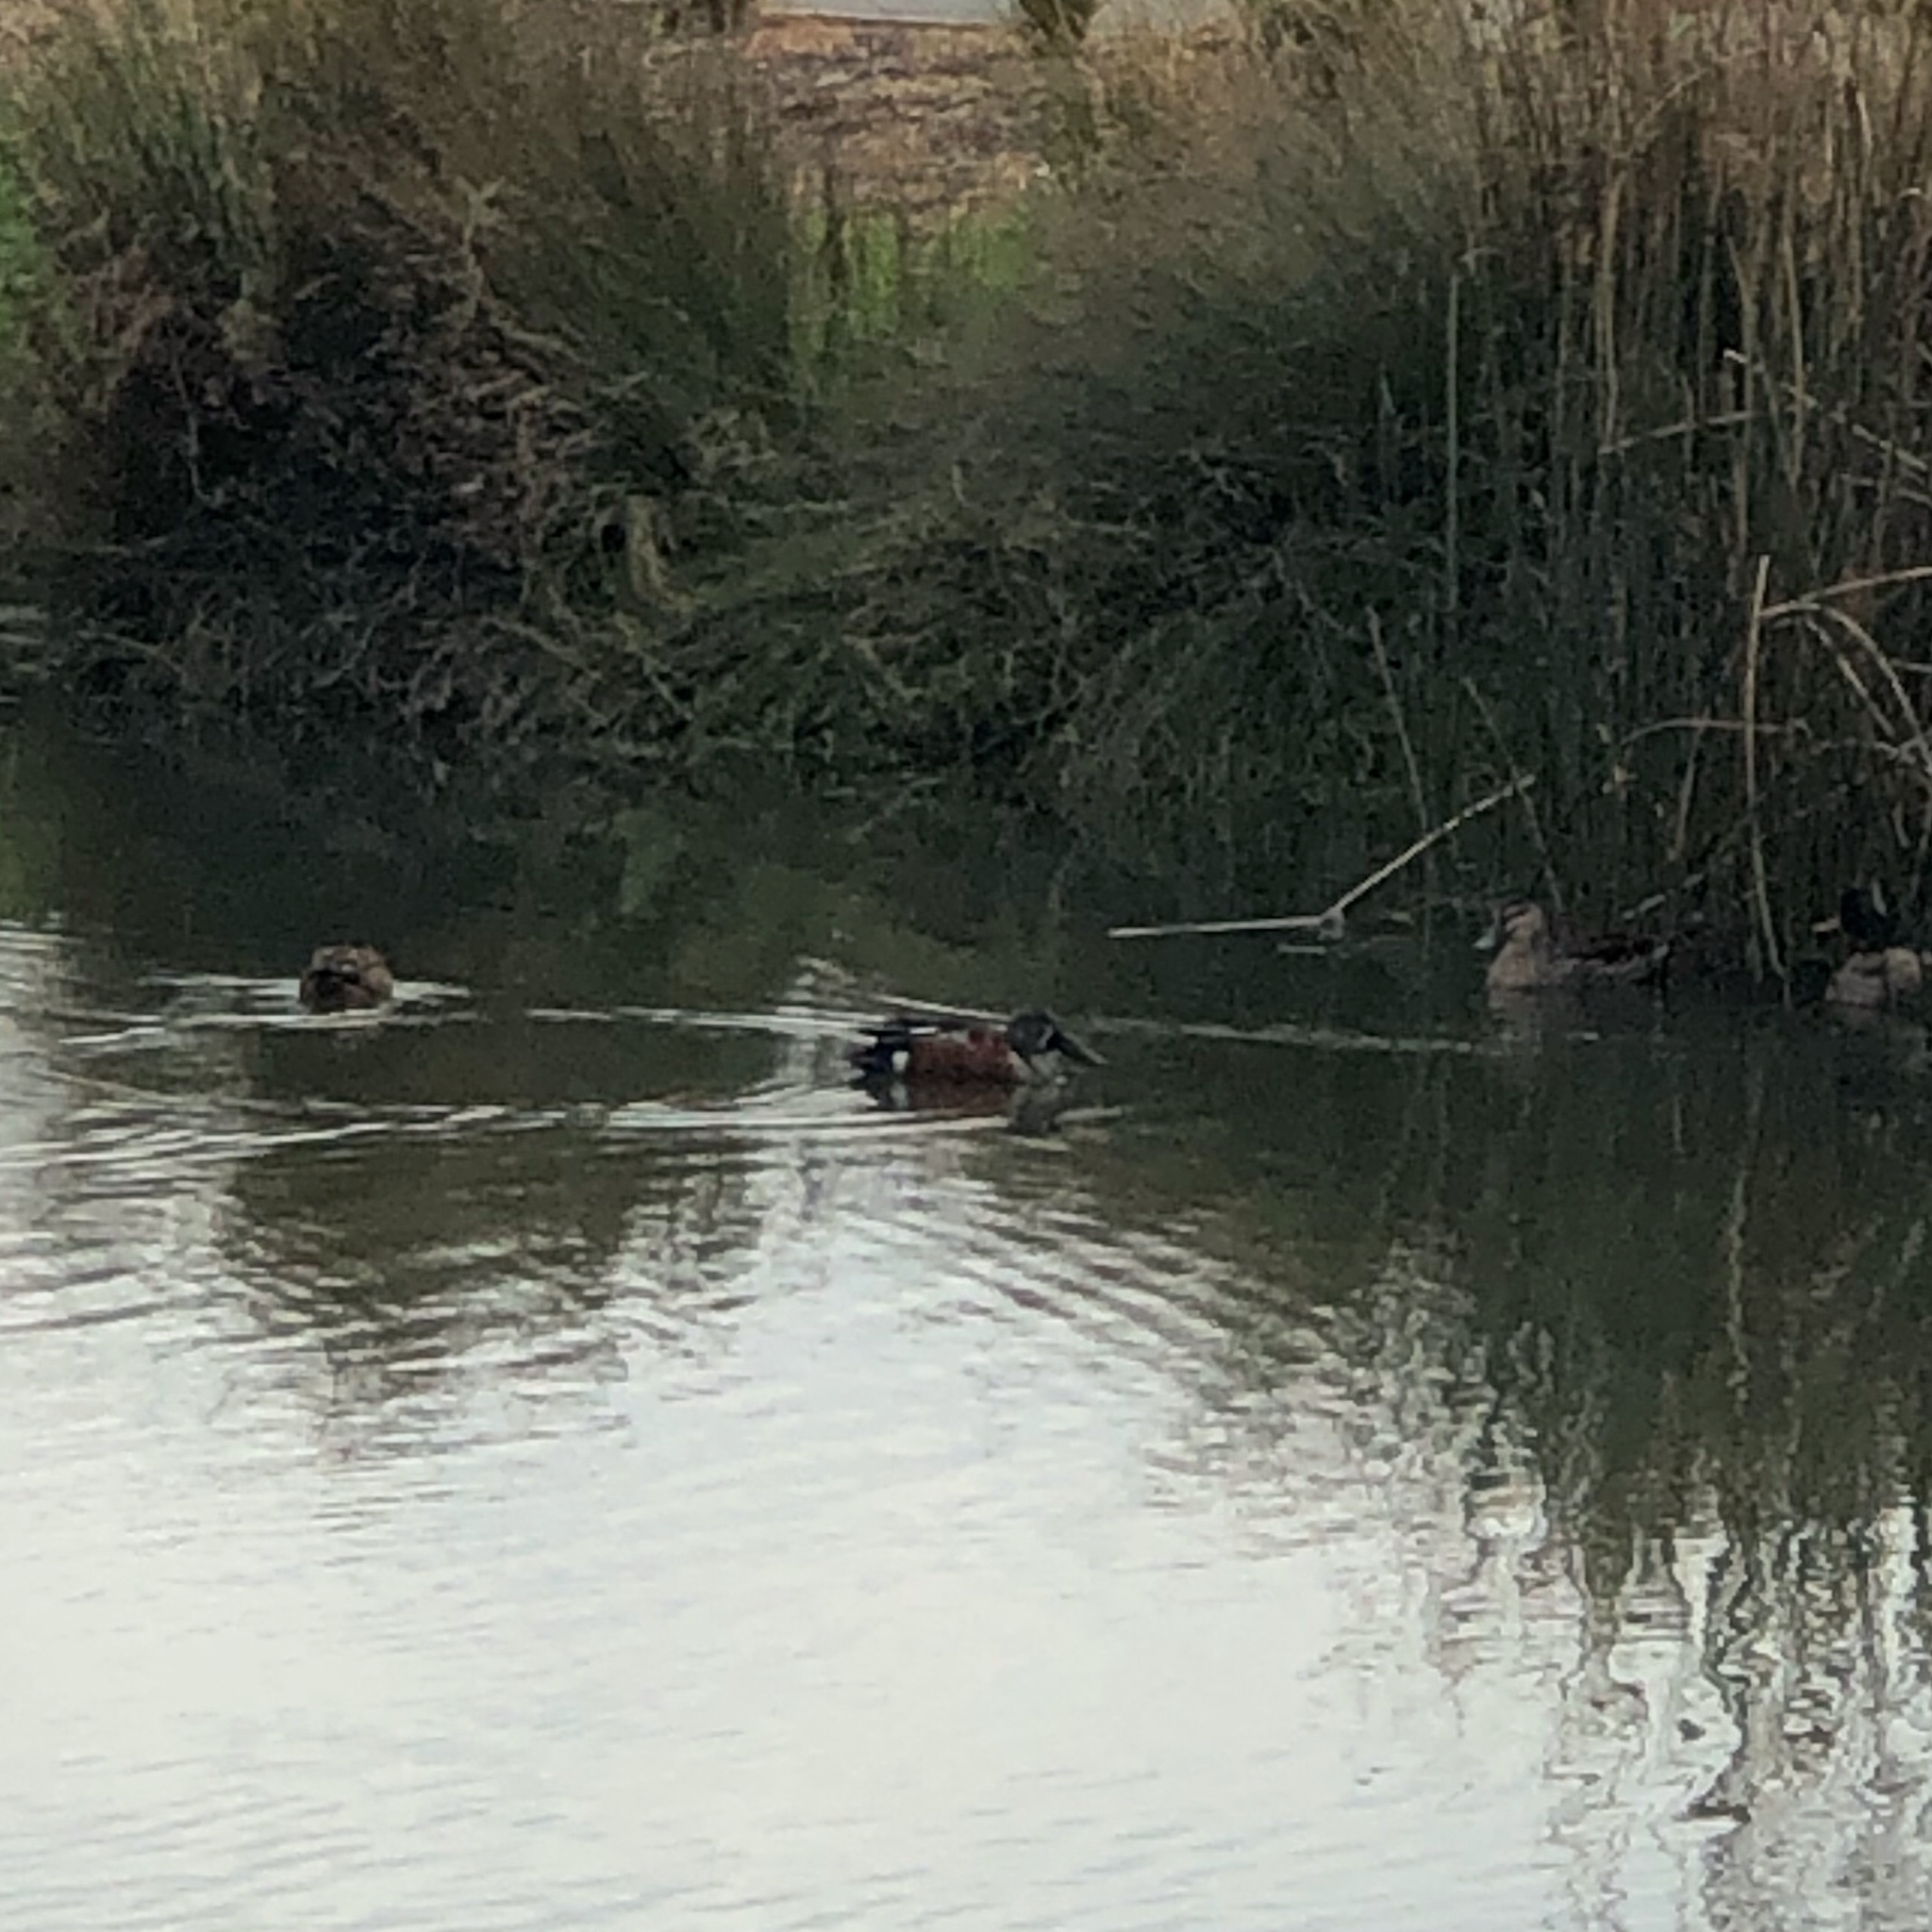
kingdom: Animalia
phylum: Chordata
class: Aves
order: Anseriformes
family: Anatidae
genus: Spatula
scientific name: Spatula rhynchotis
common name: Australian shoveler
